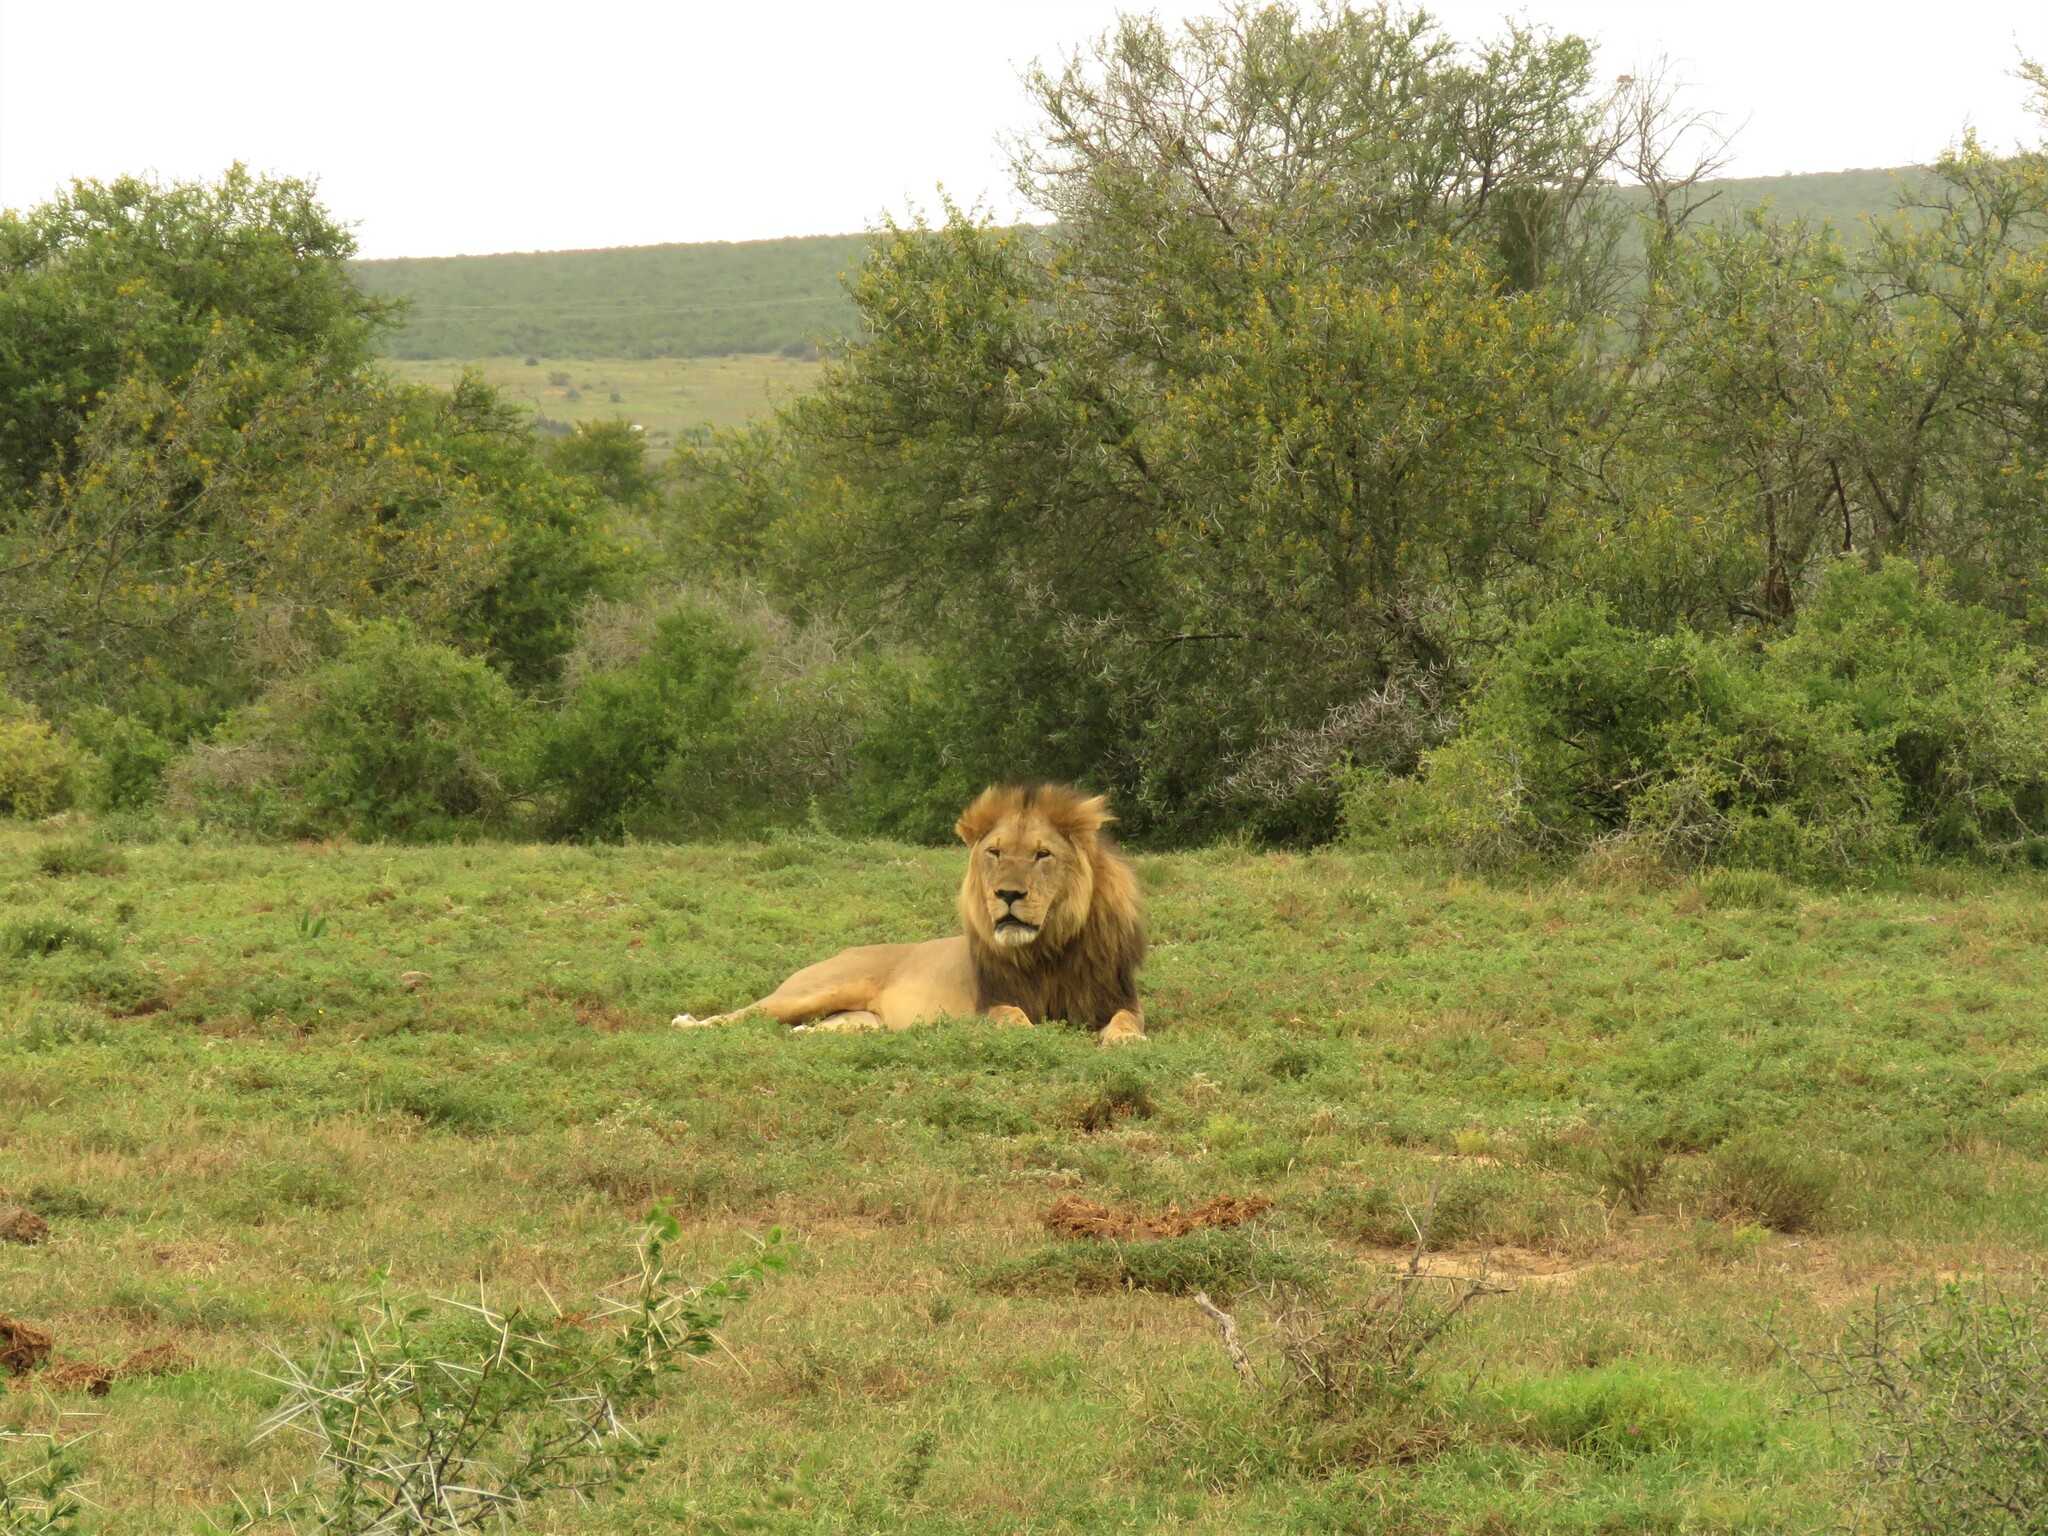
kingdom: Animalia
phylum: Chordata
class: Mammalia
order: Carnivora
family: Felidae
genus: Panthera
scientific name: Panthera leo
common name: Lion
